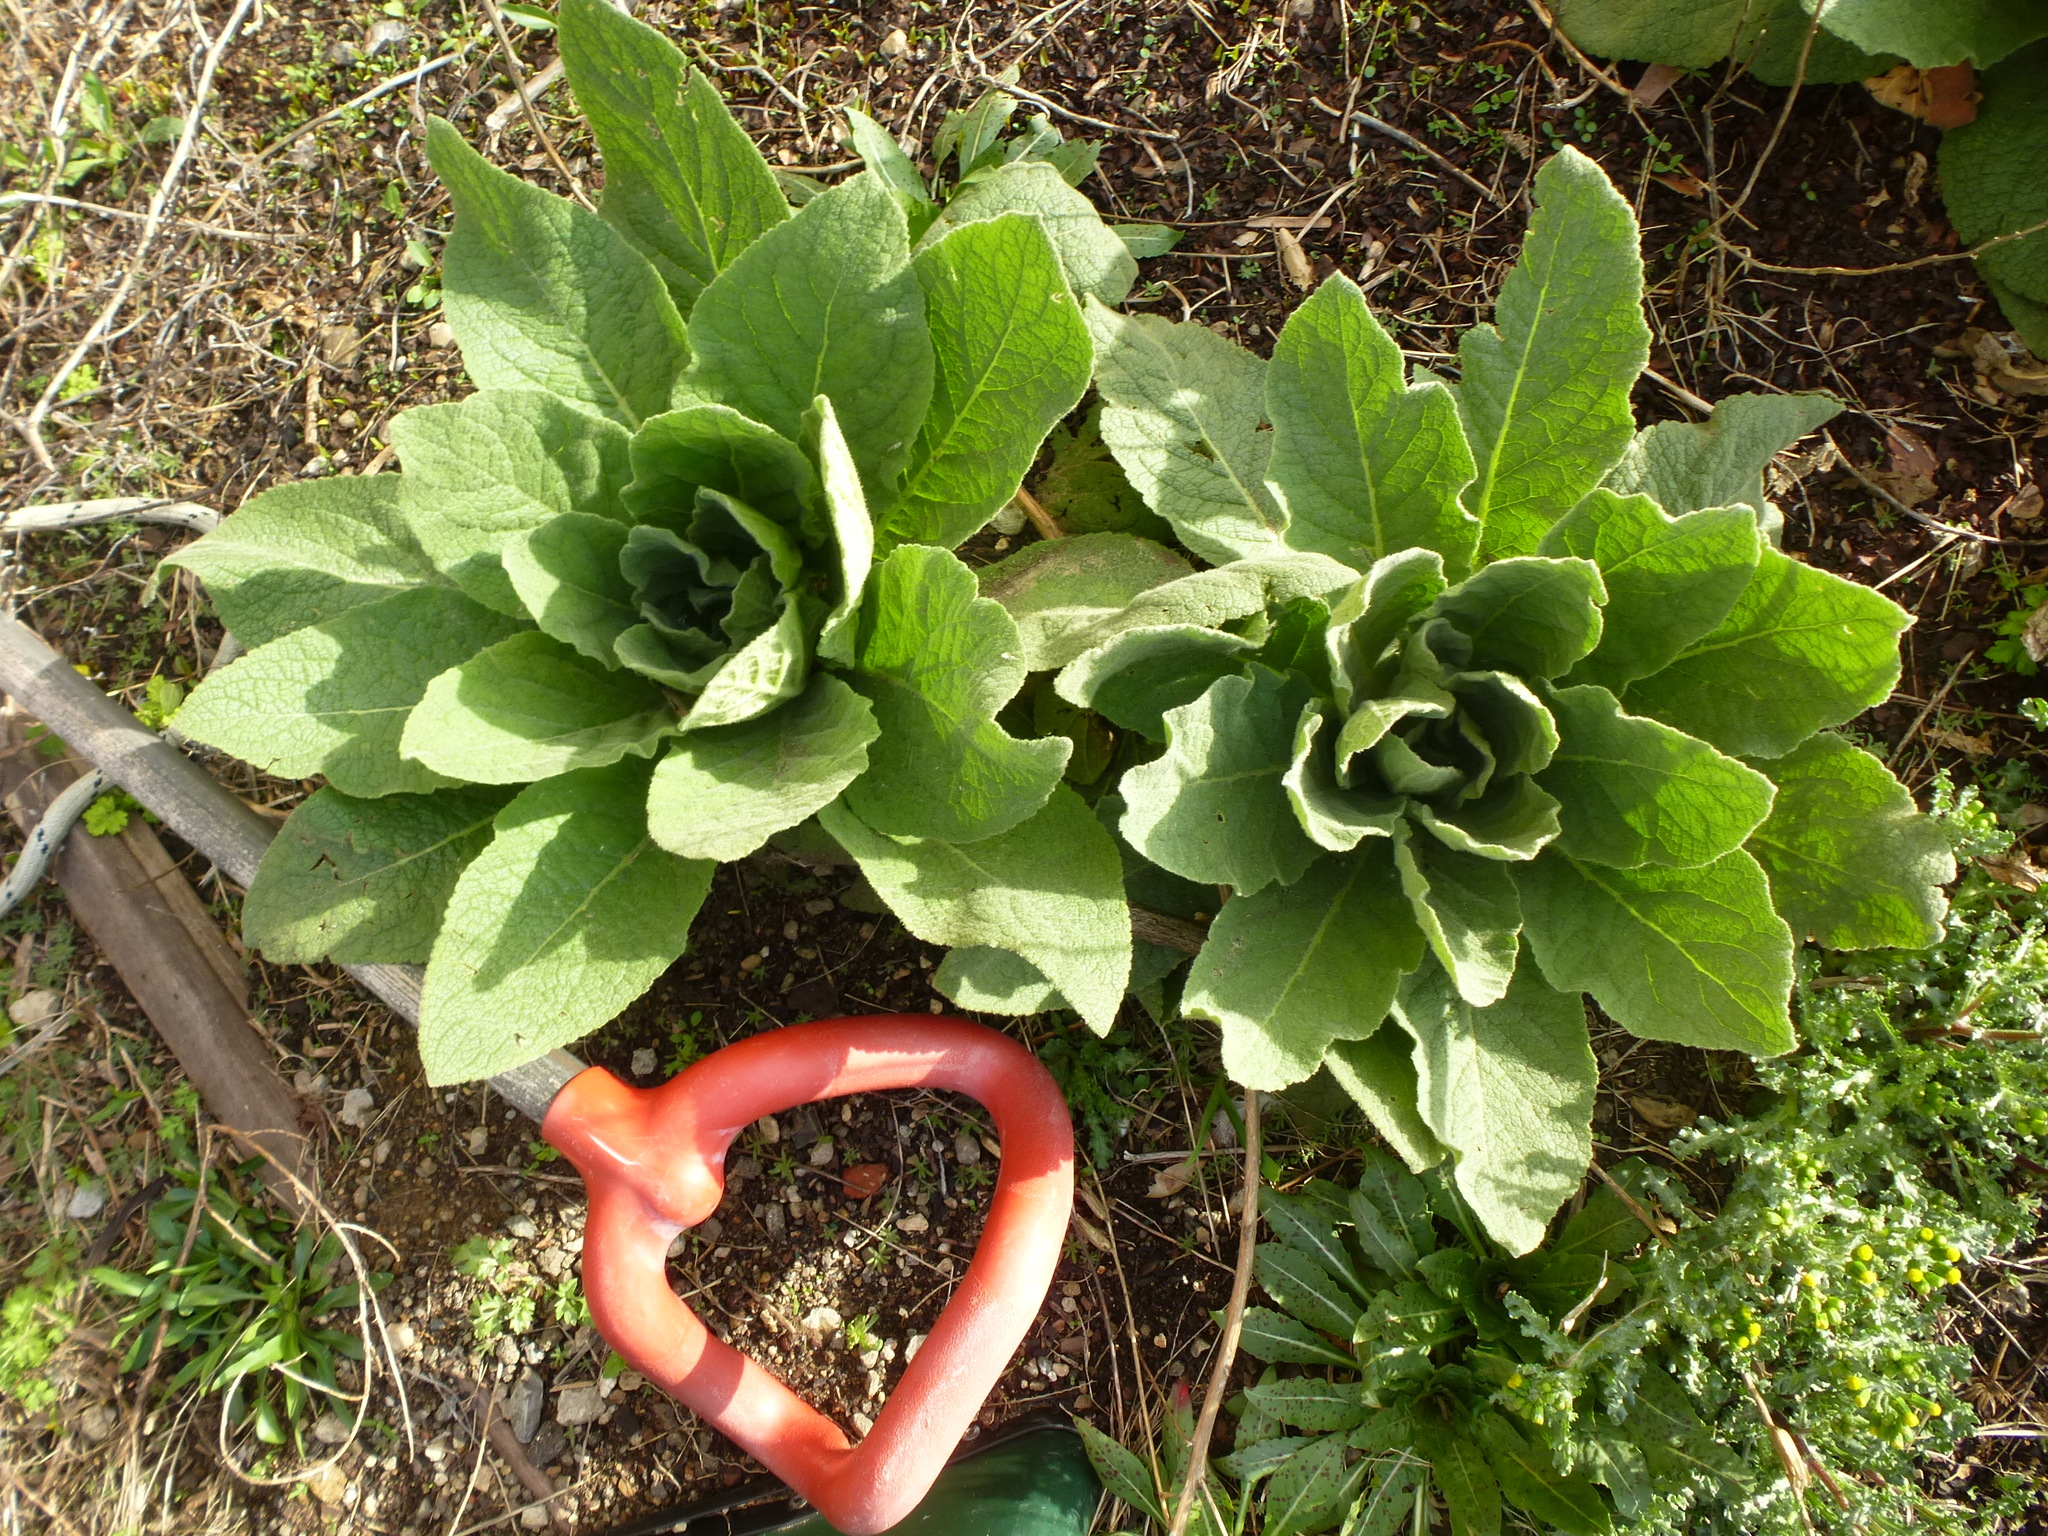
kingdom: Plantae
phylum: Tracheophyta
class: Magnoliopsida
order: Lamiales
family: Scrophulariaceae
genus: Verbascum
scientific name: Verbascum thapsus
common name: Common mullein
